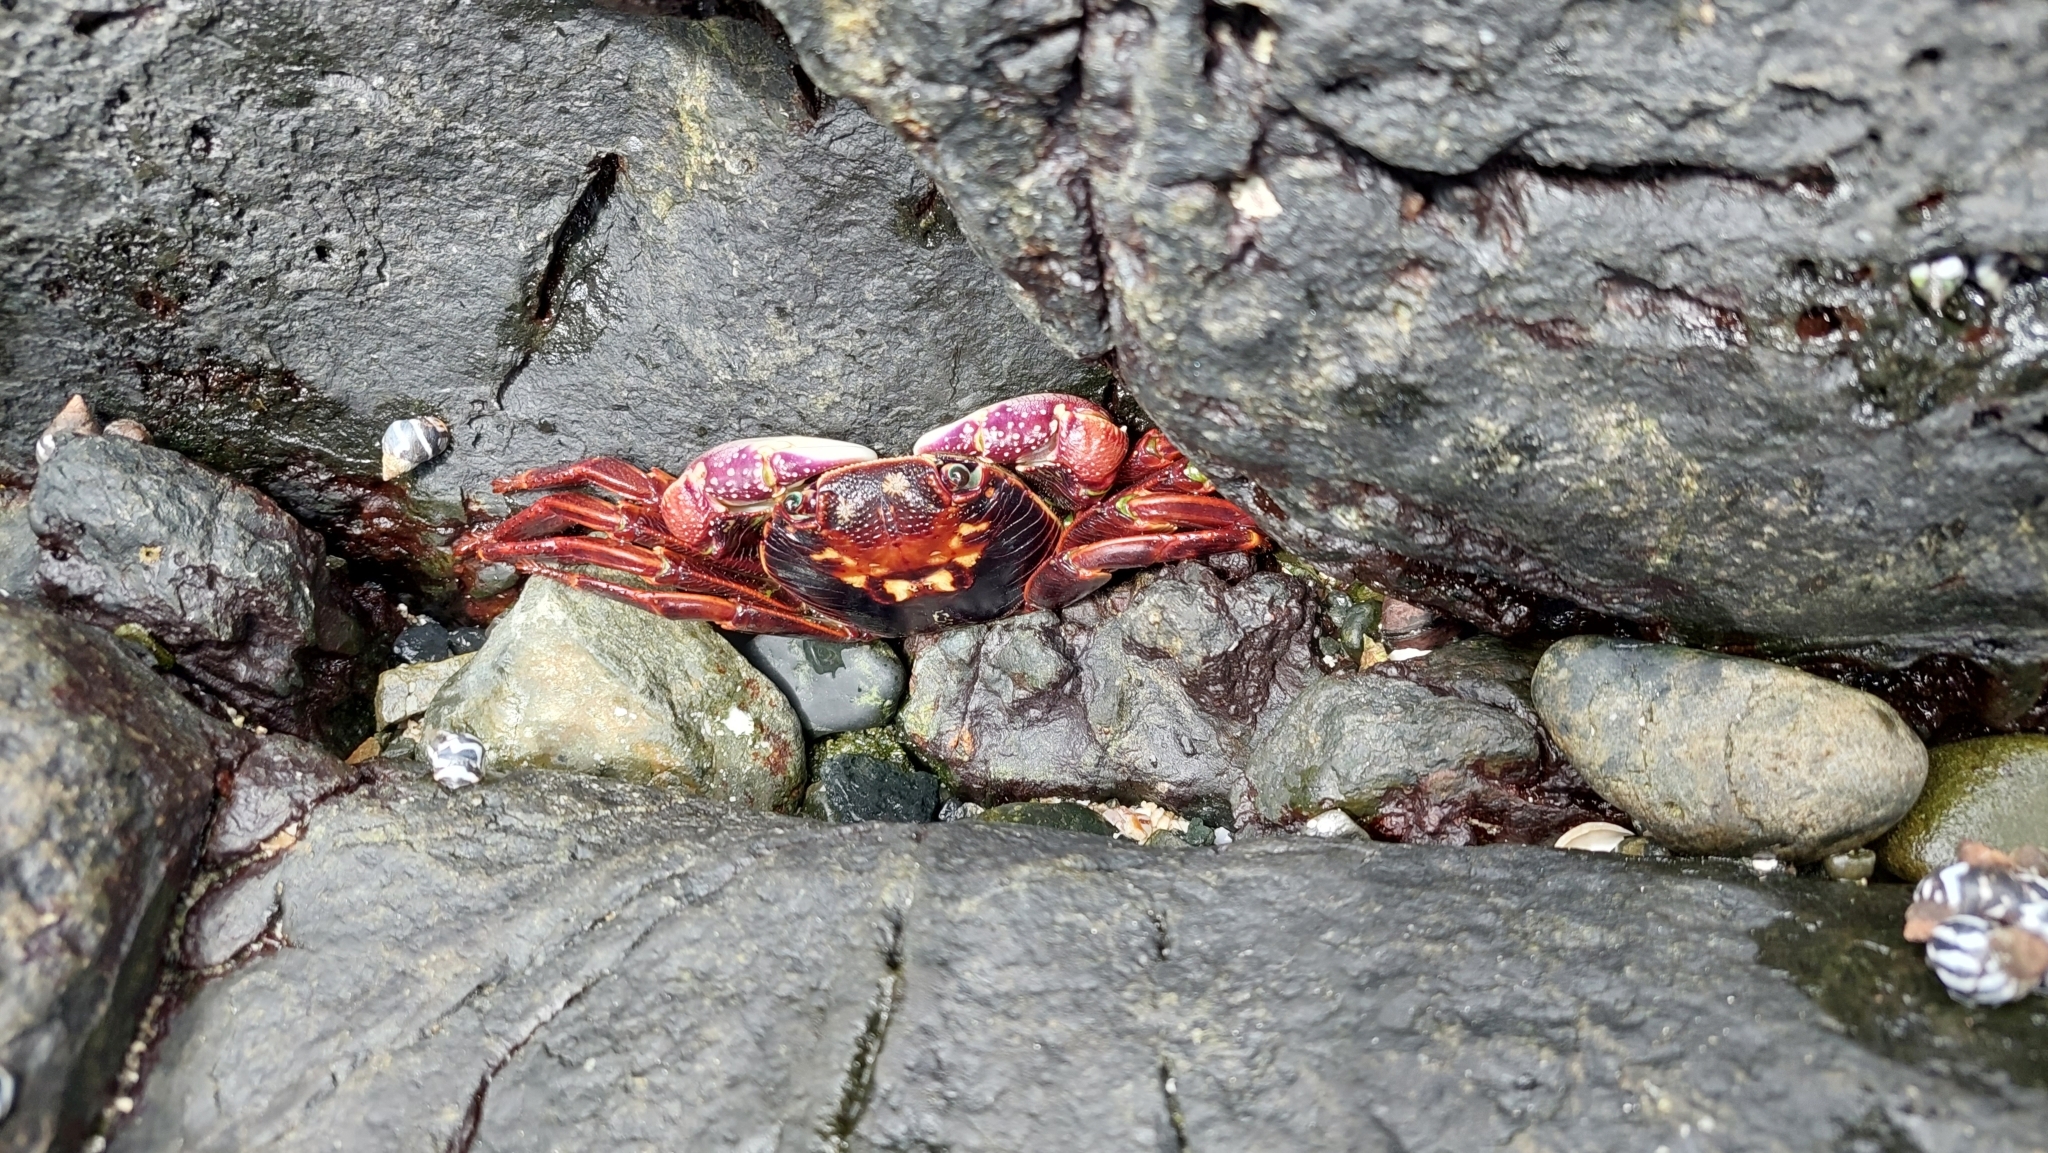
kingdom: Animalia
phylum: Arthropoda
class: Malacostraca
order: Decapoda
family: Grapsidae
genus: Leptograpsus
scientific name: Leptograpsus variegatus
